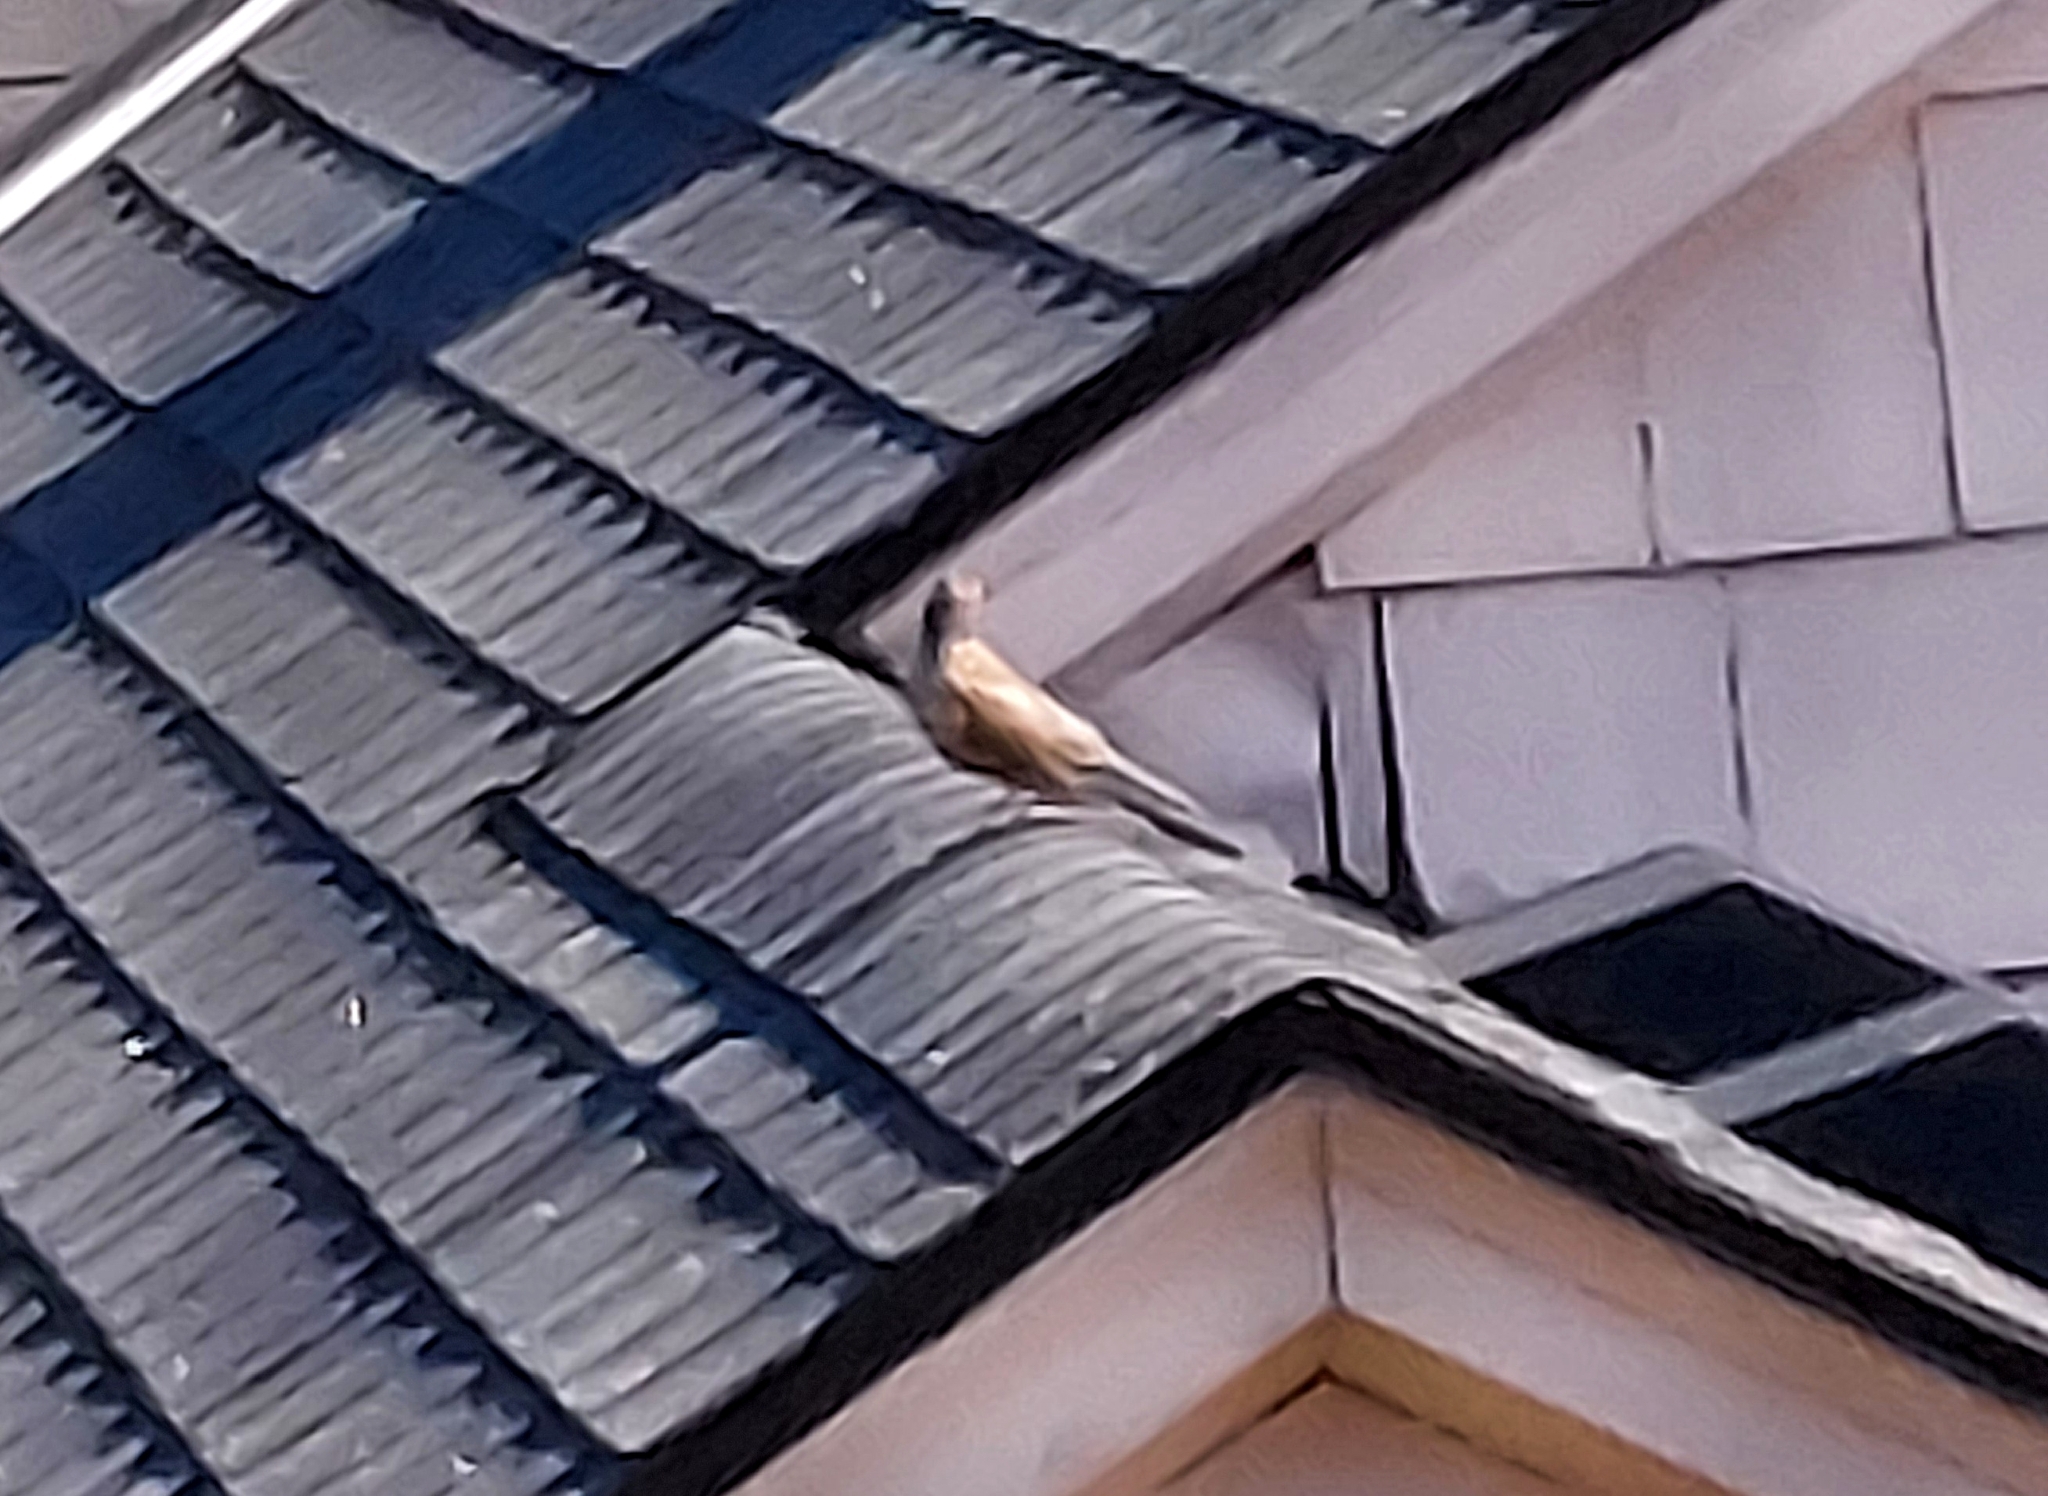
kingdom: Animalia
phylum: Chordata
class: Aves
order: Passeriformes
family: Turdidae
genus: Turdus
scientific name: Turdus migratorius
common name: American robin
